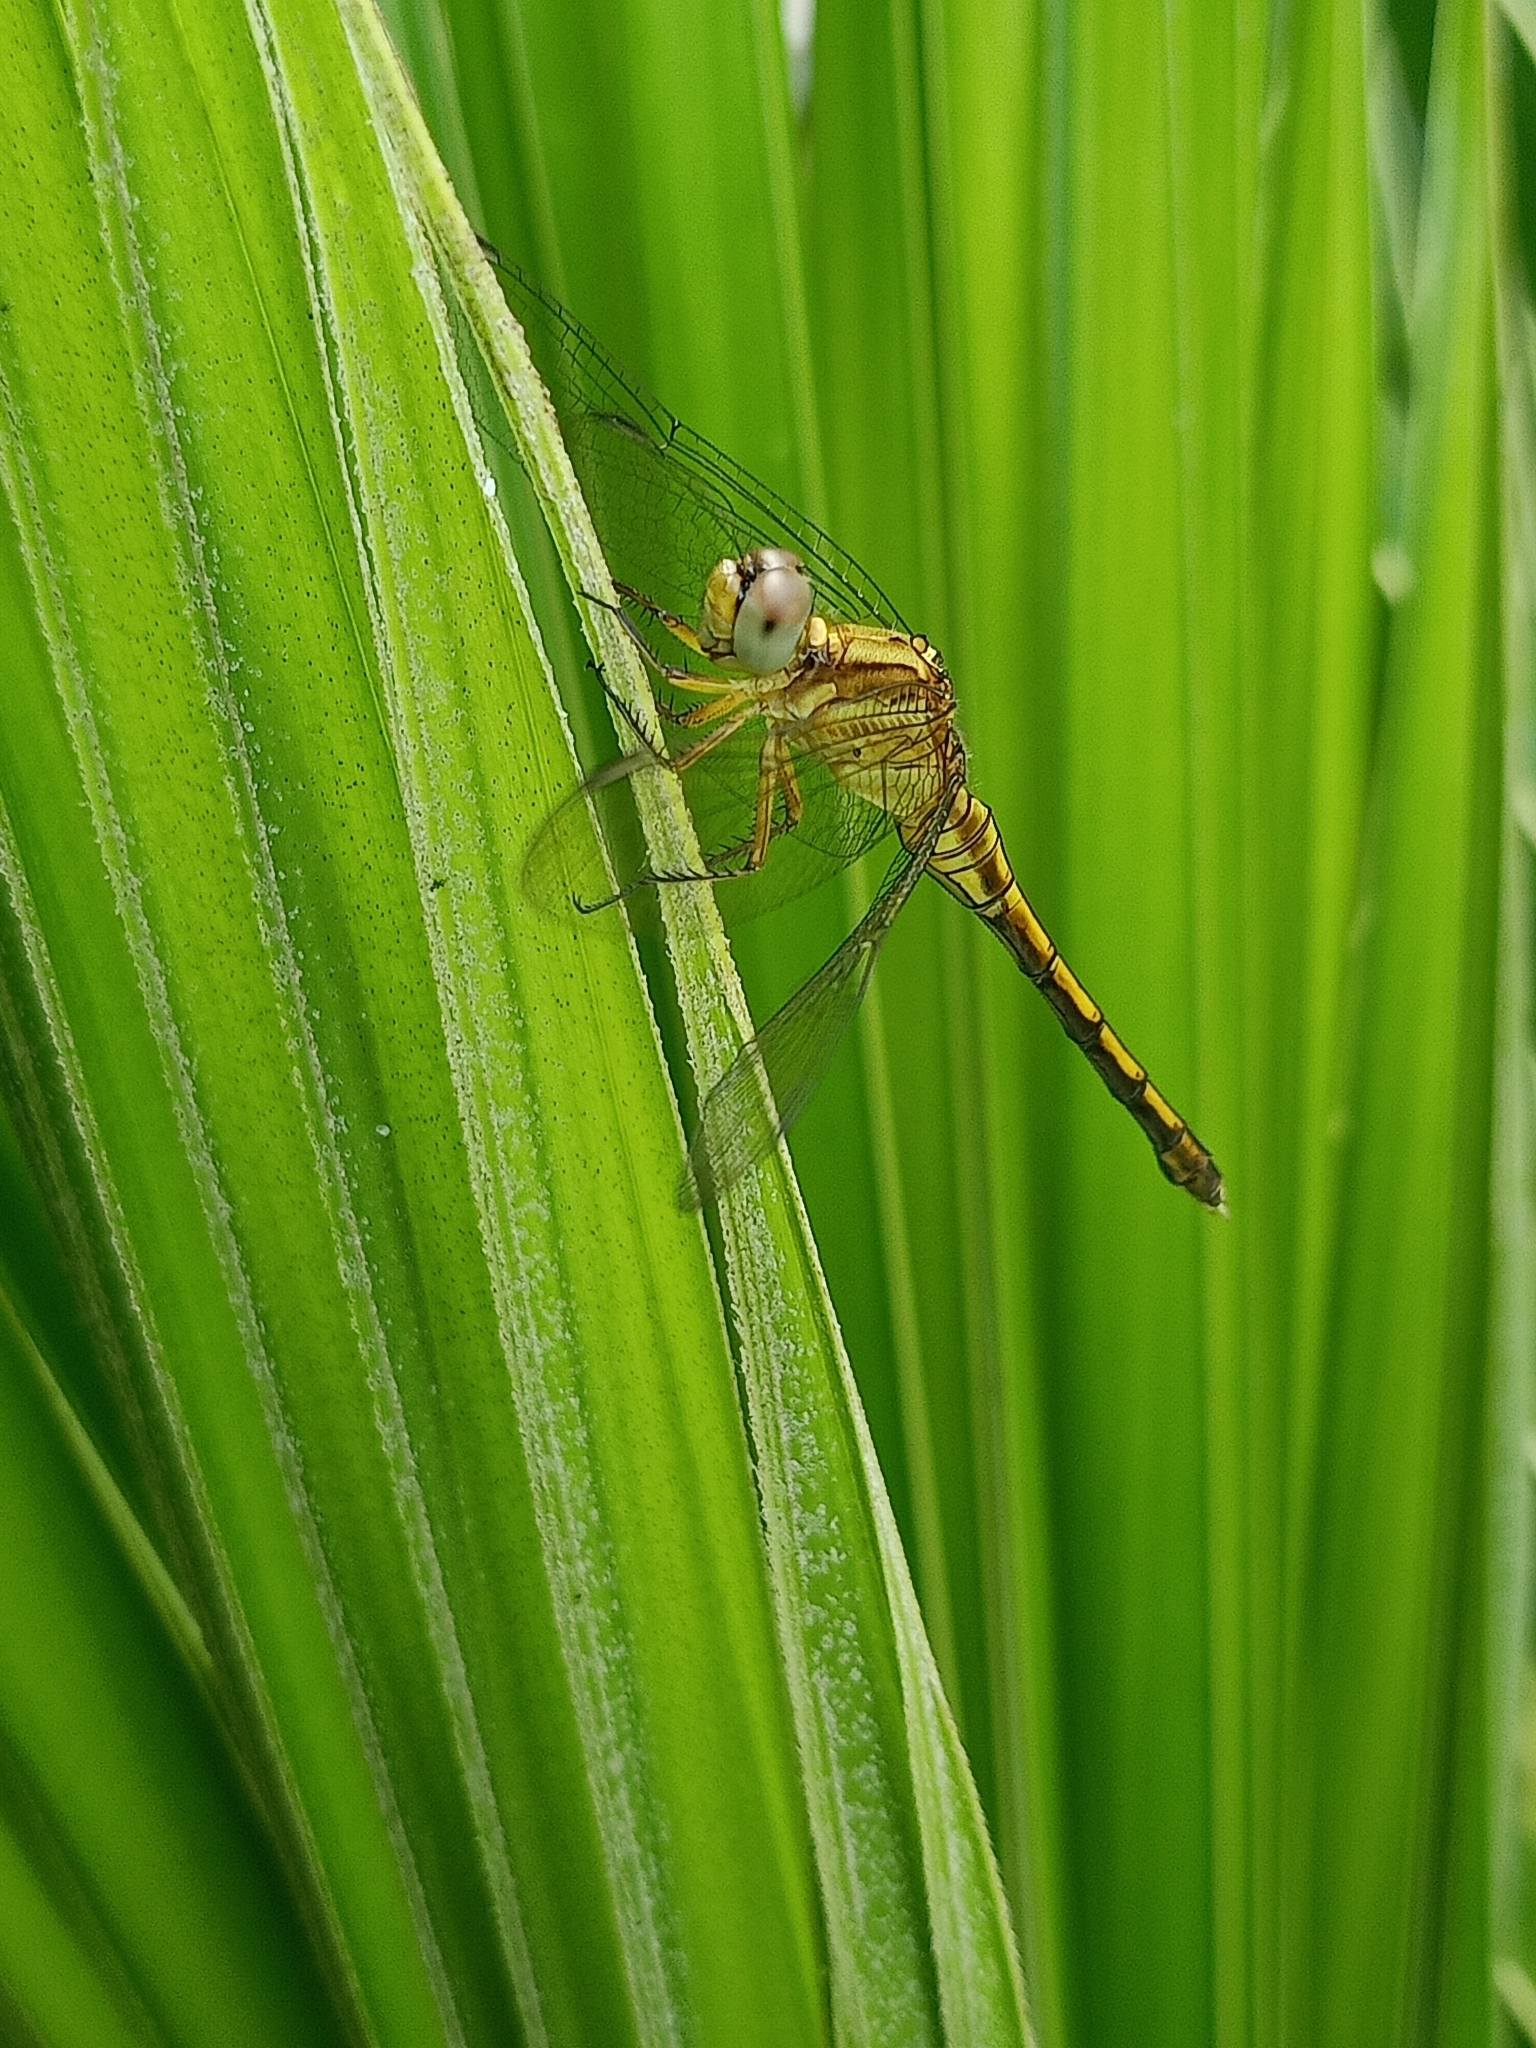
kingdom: Animalia
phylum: Arthropoda
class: Insecta
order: Odonata
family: Libellulidae
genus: Orthetrum
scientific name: Orthetrum luzonicum
